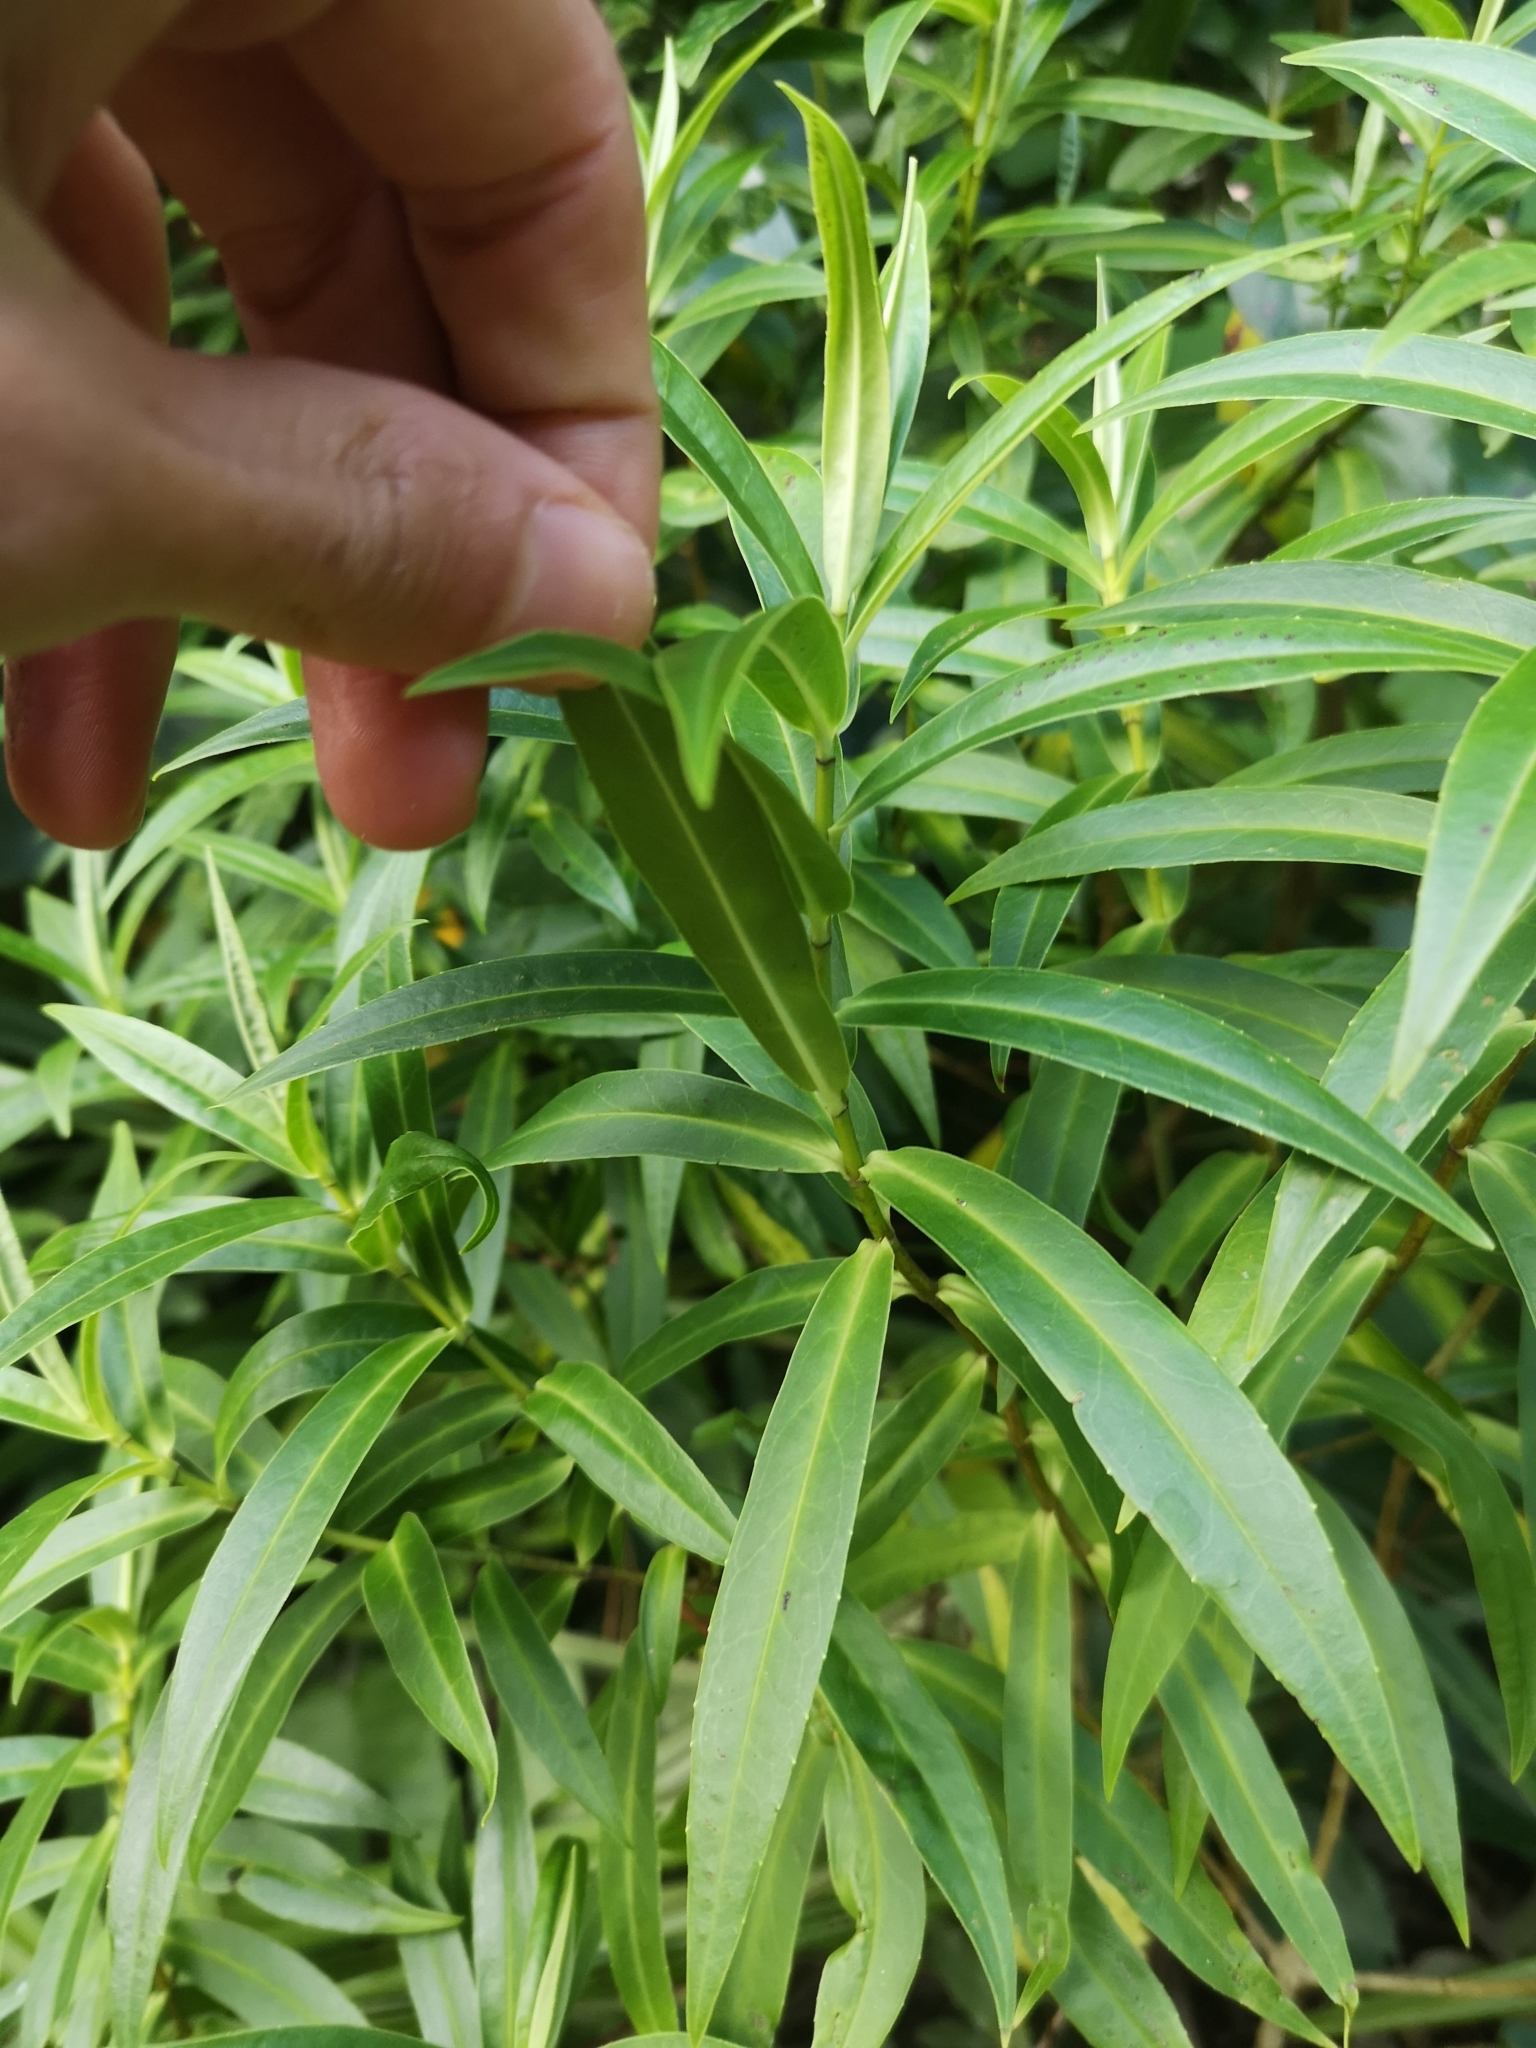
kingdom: Plantae
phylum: Tracheophyta
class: Magnoliopsida
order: Lamiales
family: Plantaginaceae
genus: Veronica
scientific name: Veronica salicifolia
